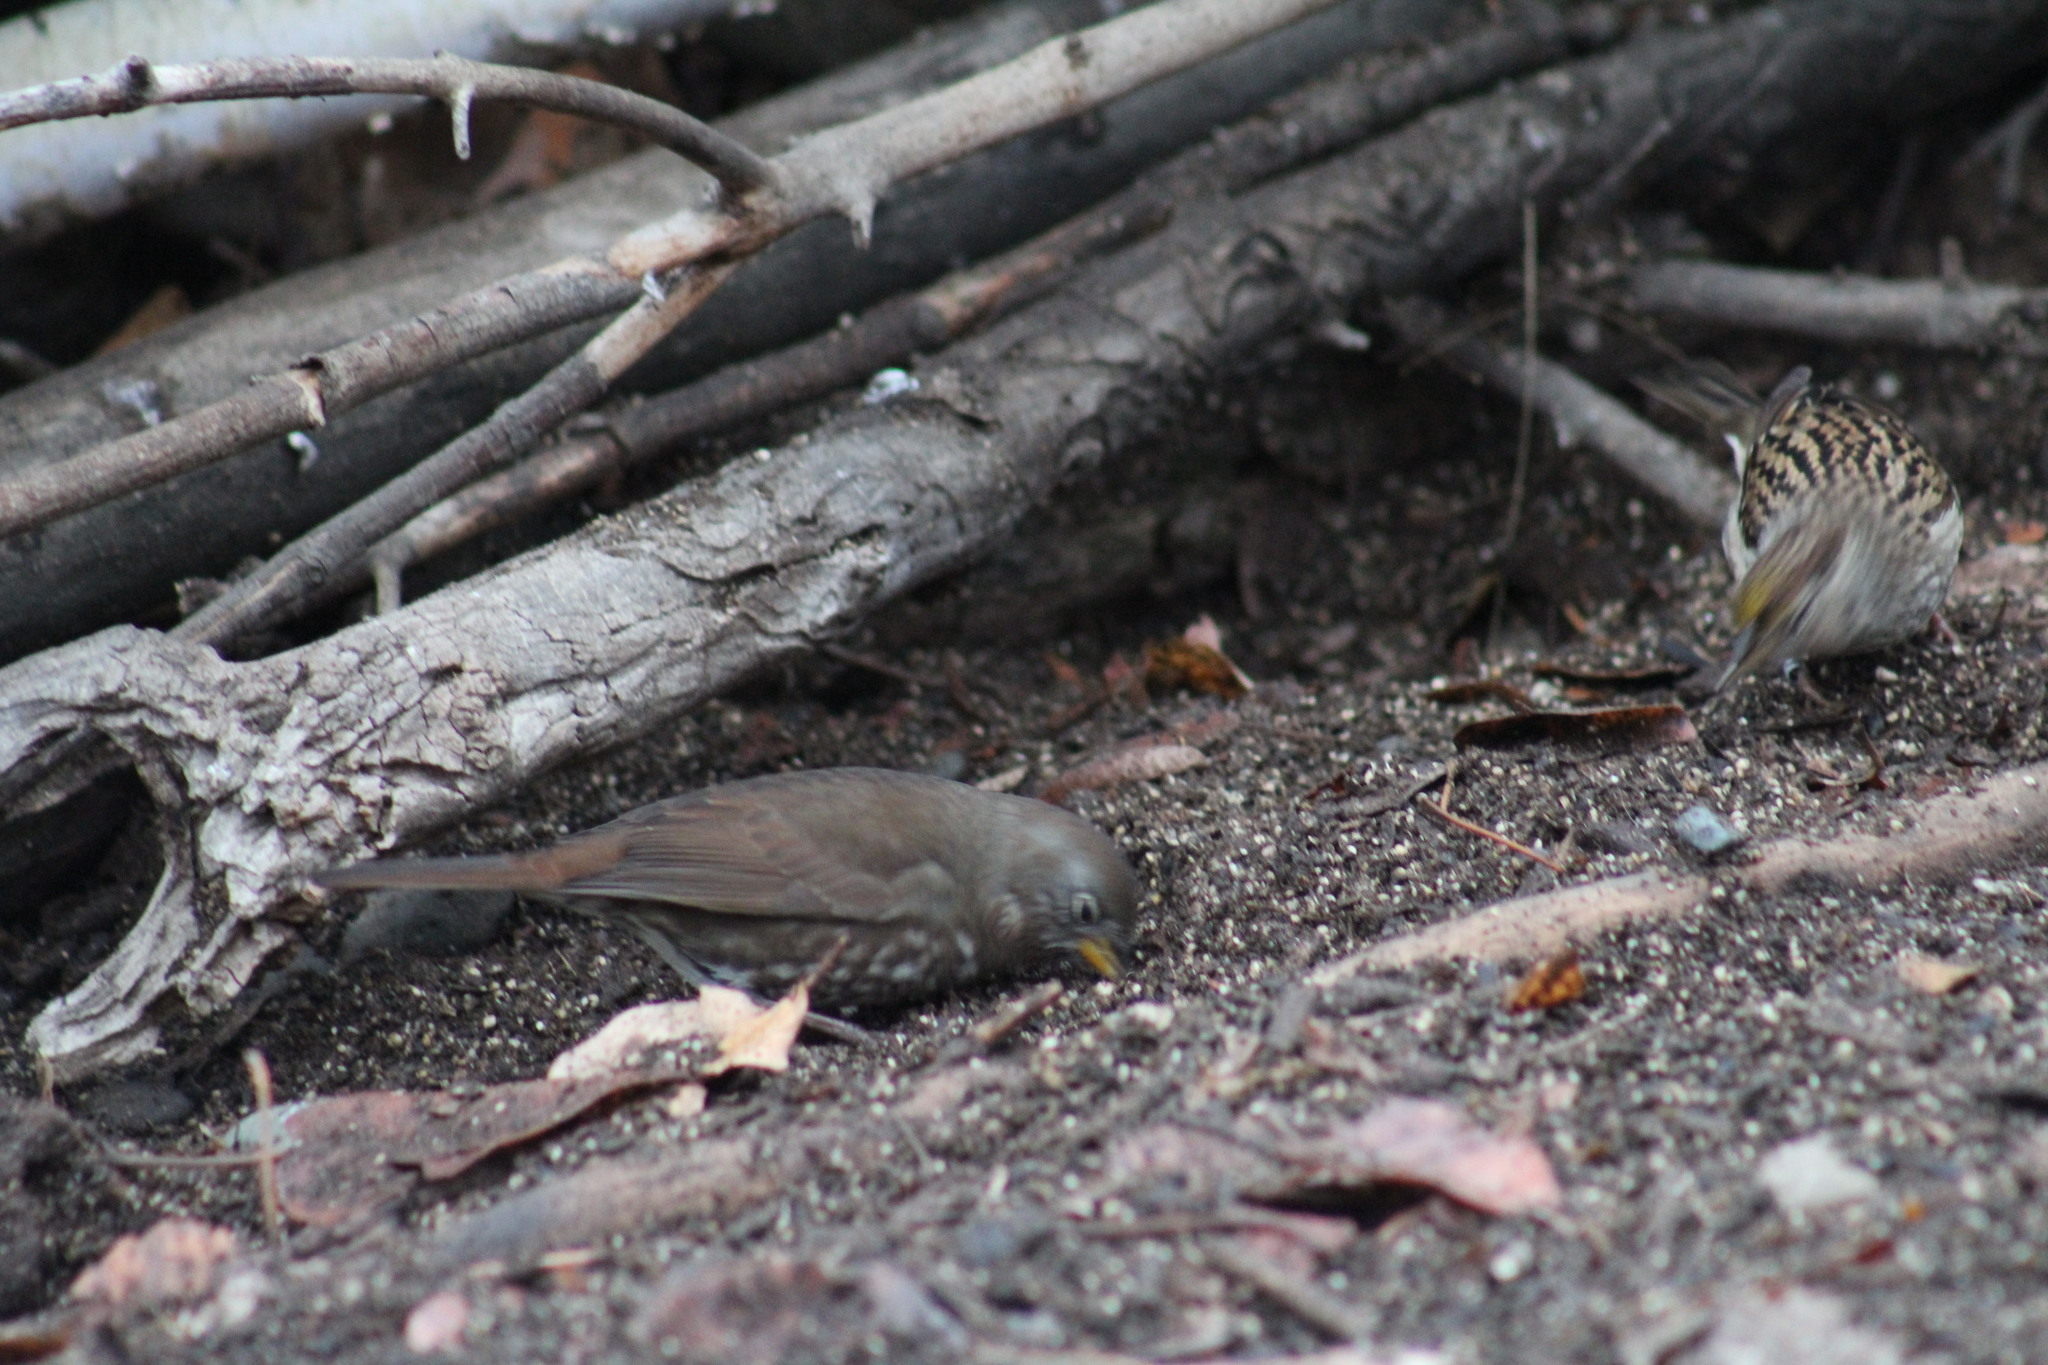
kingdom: Animalia
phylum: Chordata
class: Aves
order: Passeriformes
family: Passerellidae
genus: Passerella
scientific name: Passerella iliaca
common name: Fox sparrow
